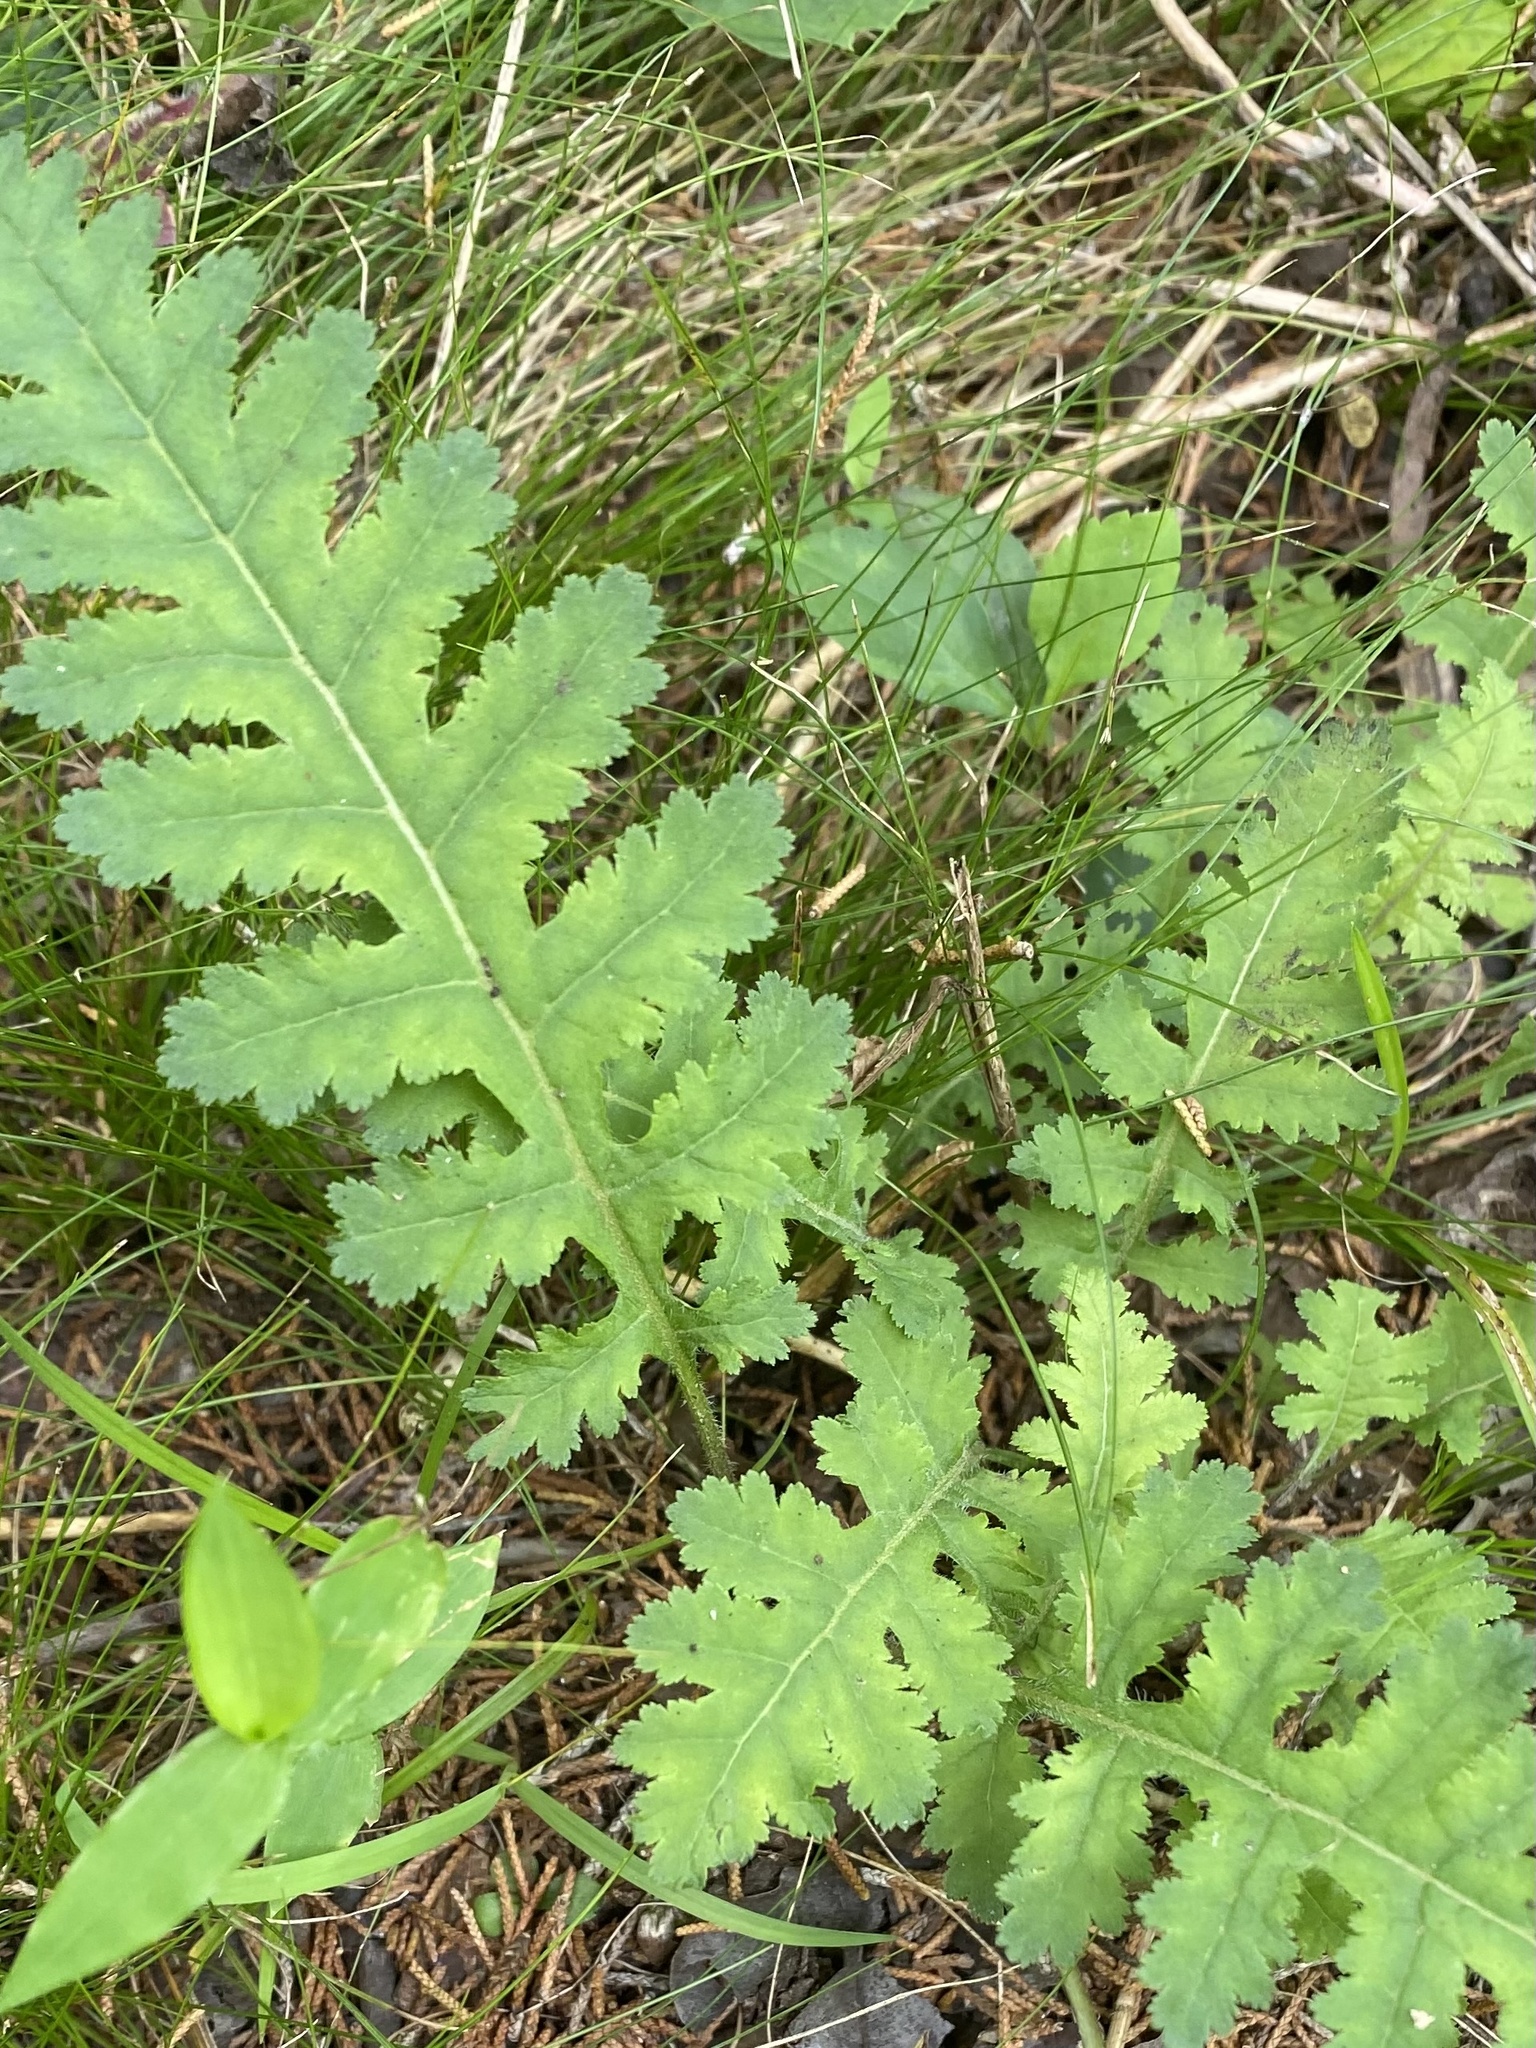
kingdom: Plantae
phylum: Tracheophyta
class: Magnoliopsida
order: Lamiales
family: Orobanchaceae
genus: Pedicularis
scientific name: Pedicularis canadensis
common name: Early lousewort
